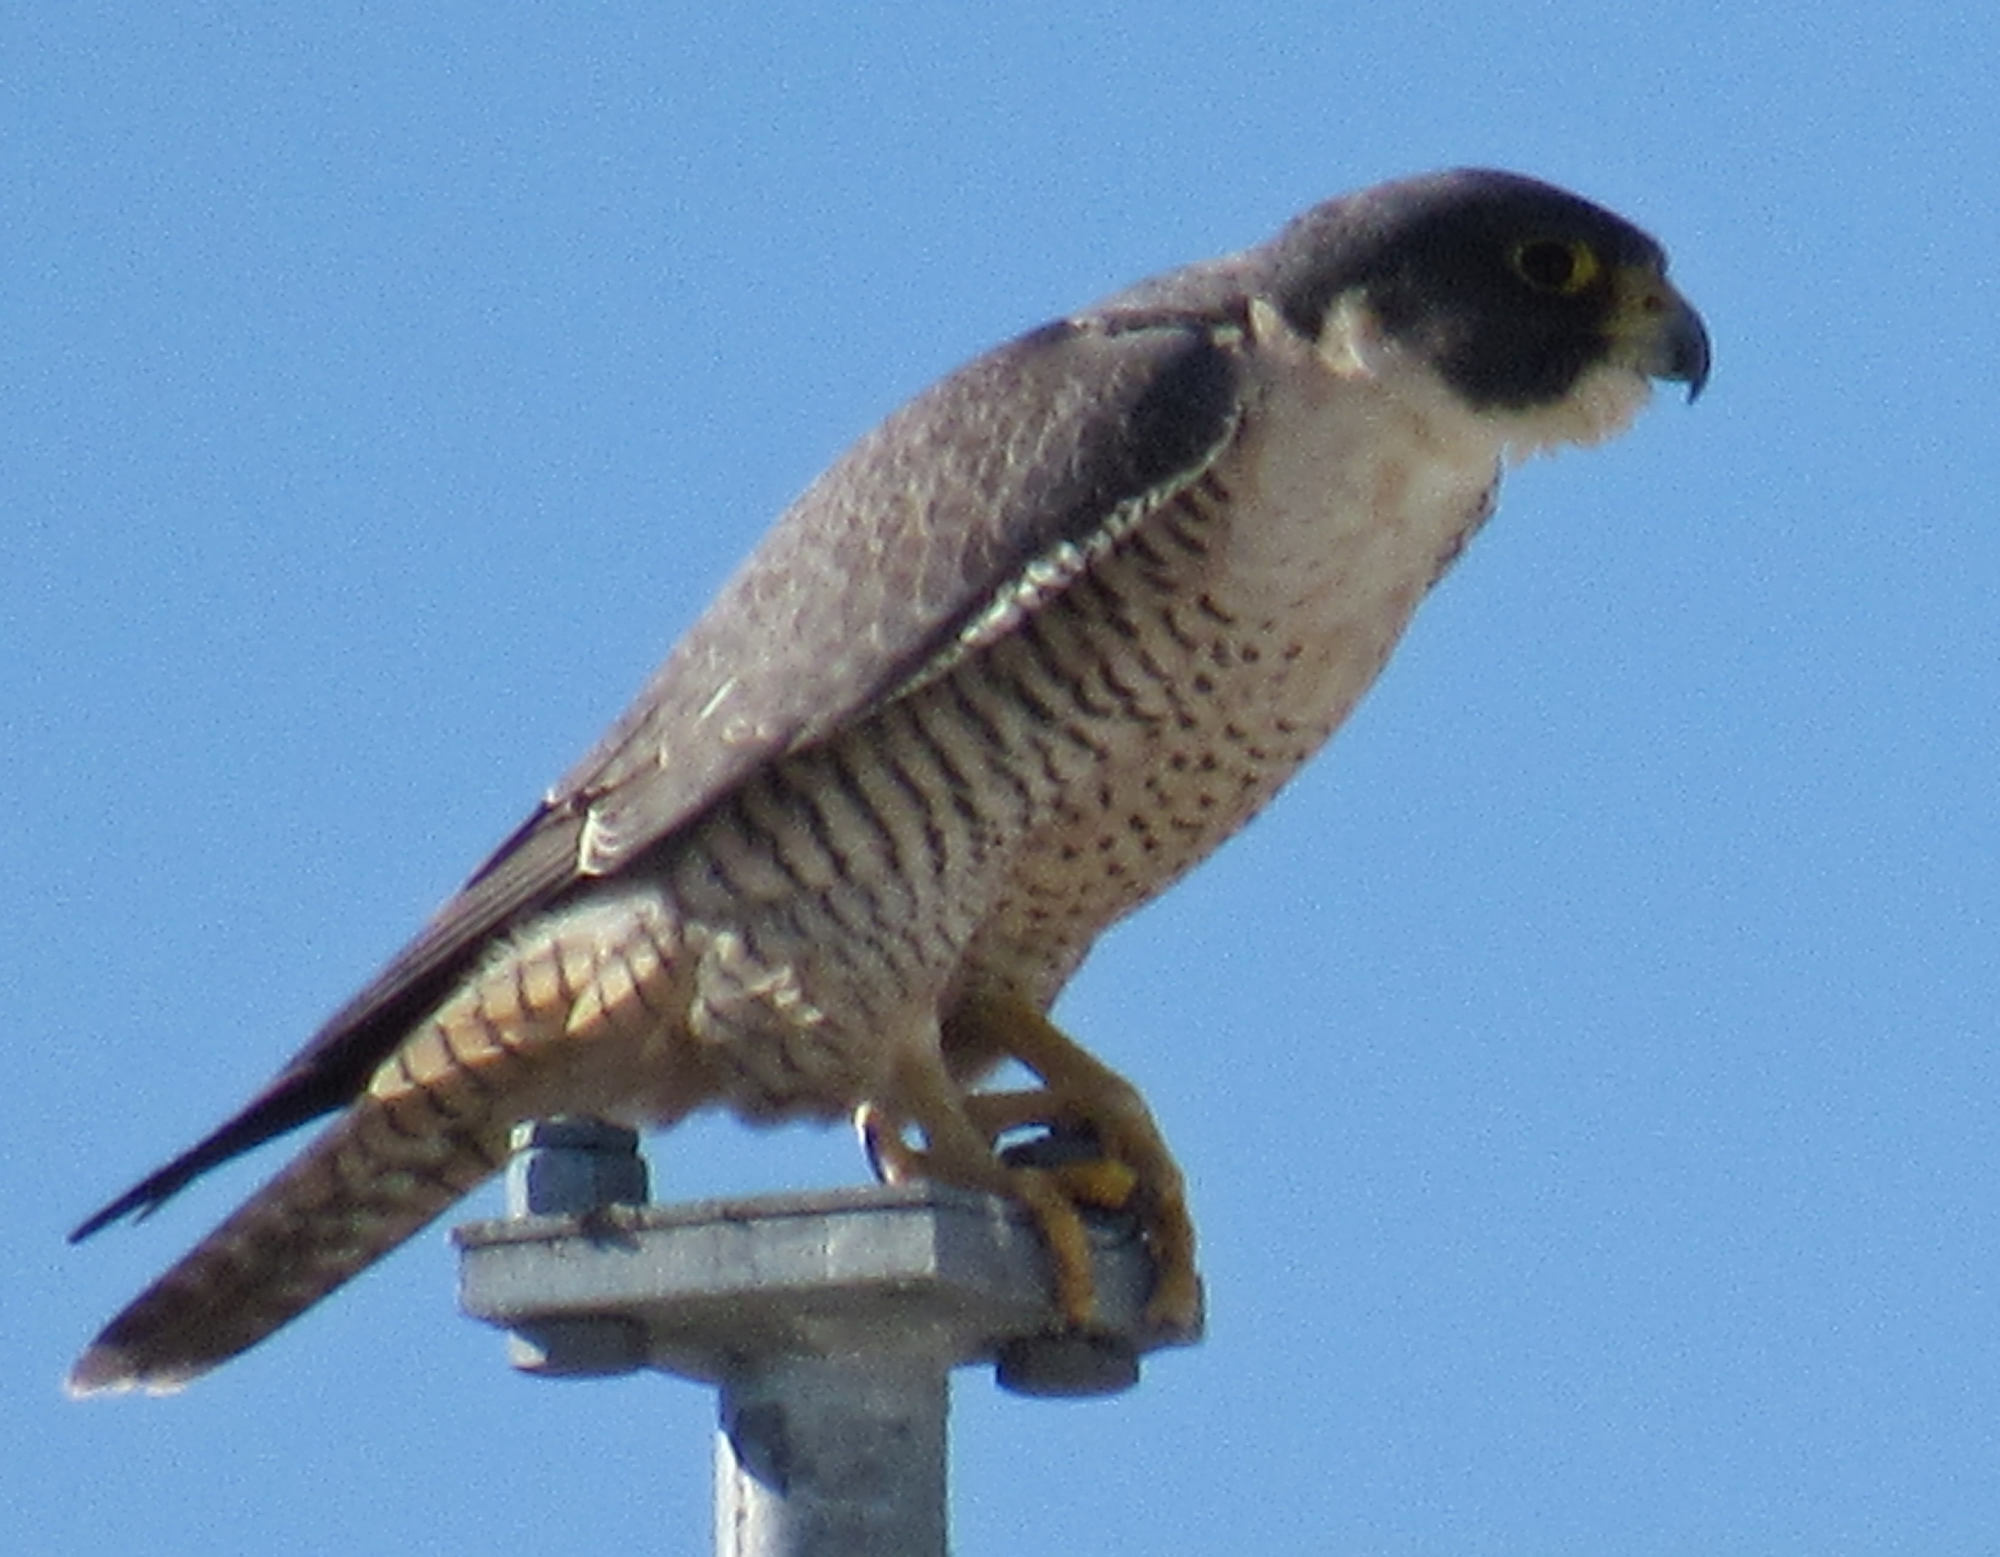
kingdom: Animalia
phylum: Chordata
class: Aves
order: Falconiformes
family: Falconidae
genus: Falco
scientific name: Falco peregrinus
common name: Peregrine falcon
